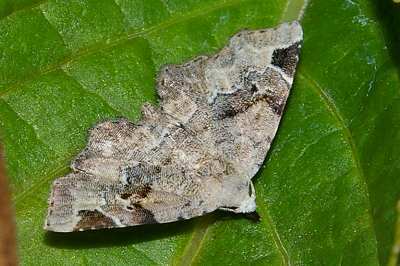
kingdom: Animalia
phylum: Arthropoda
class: Insecta
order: Lepidoptera
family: Erebidae
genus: Aventiola
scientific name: Aventiola pusilla
